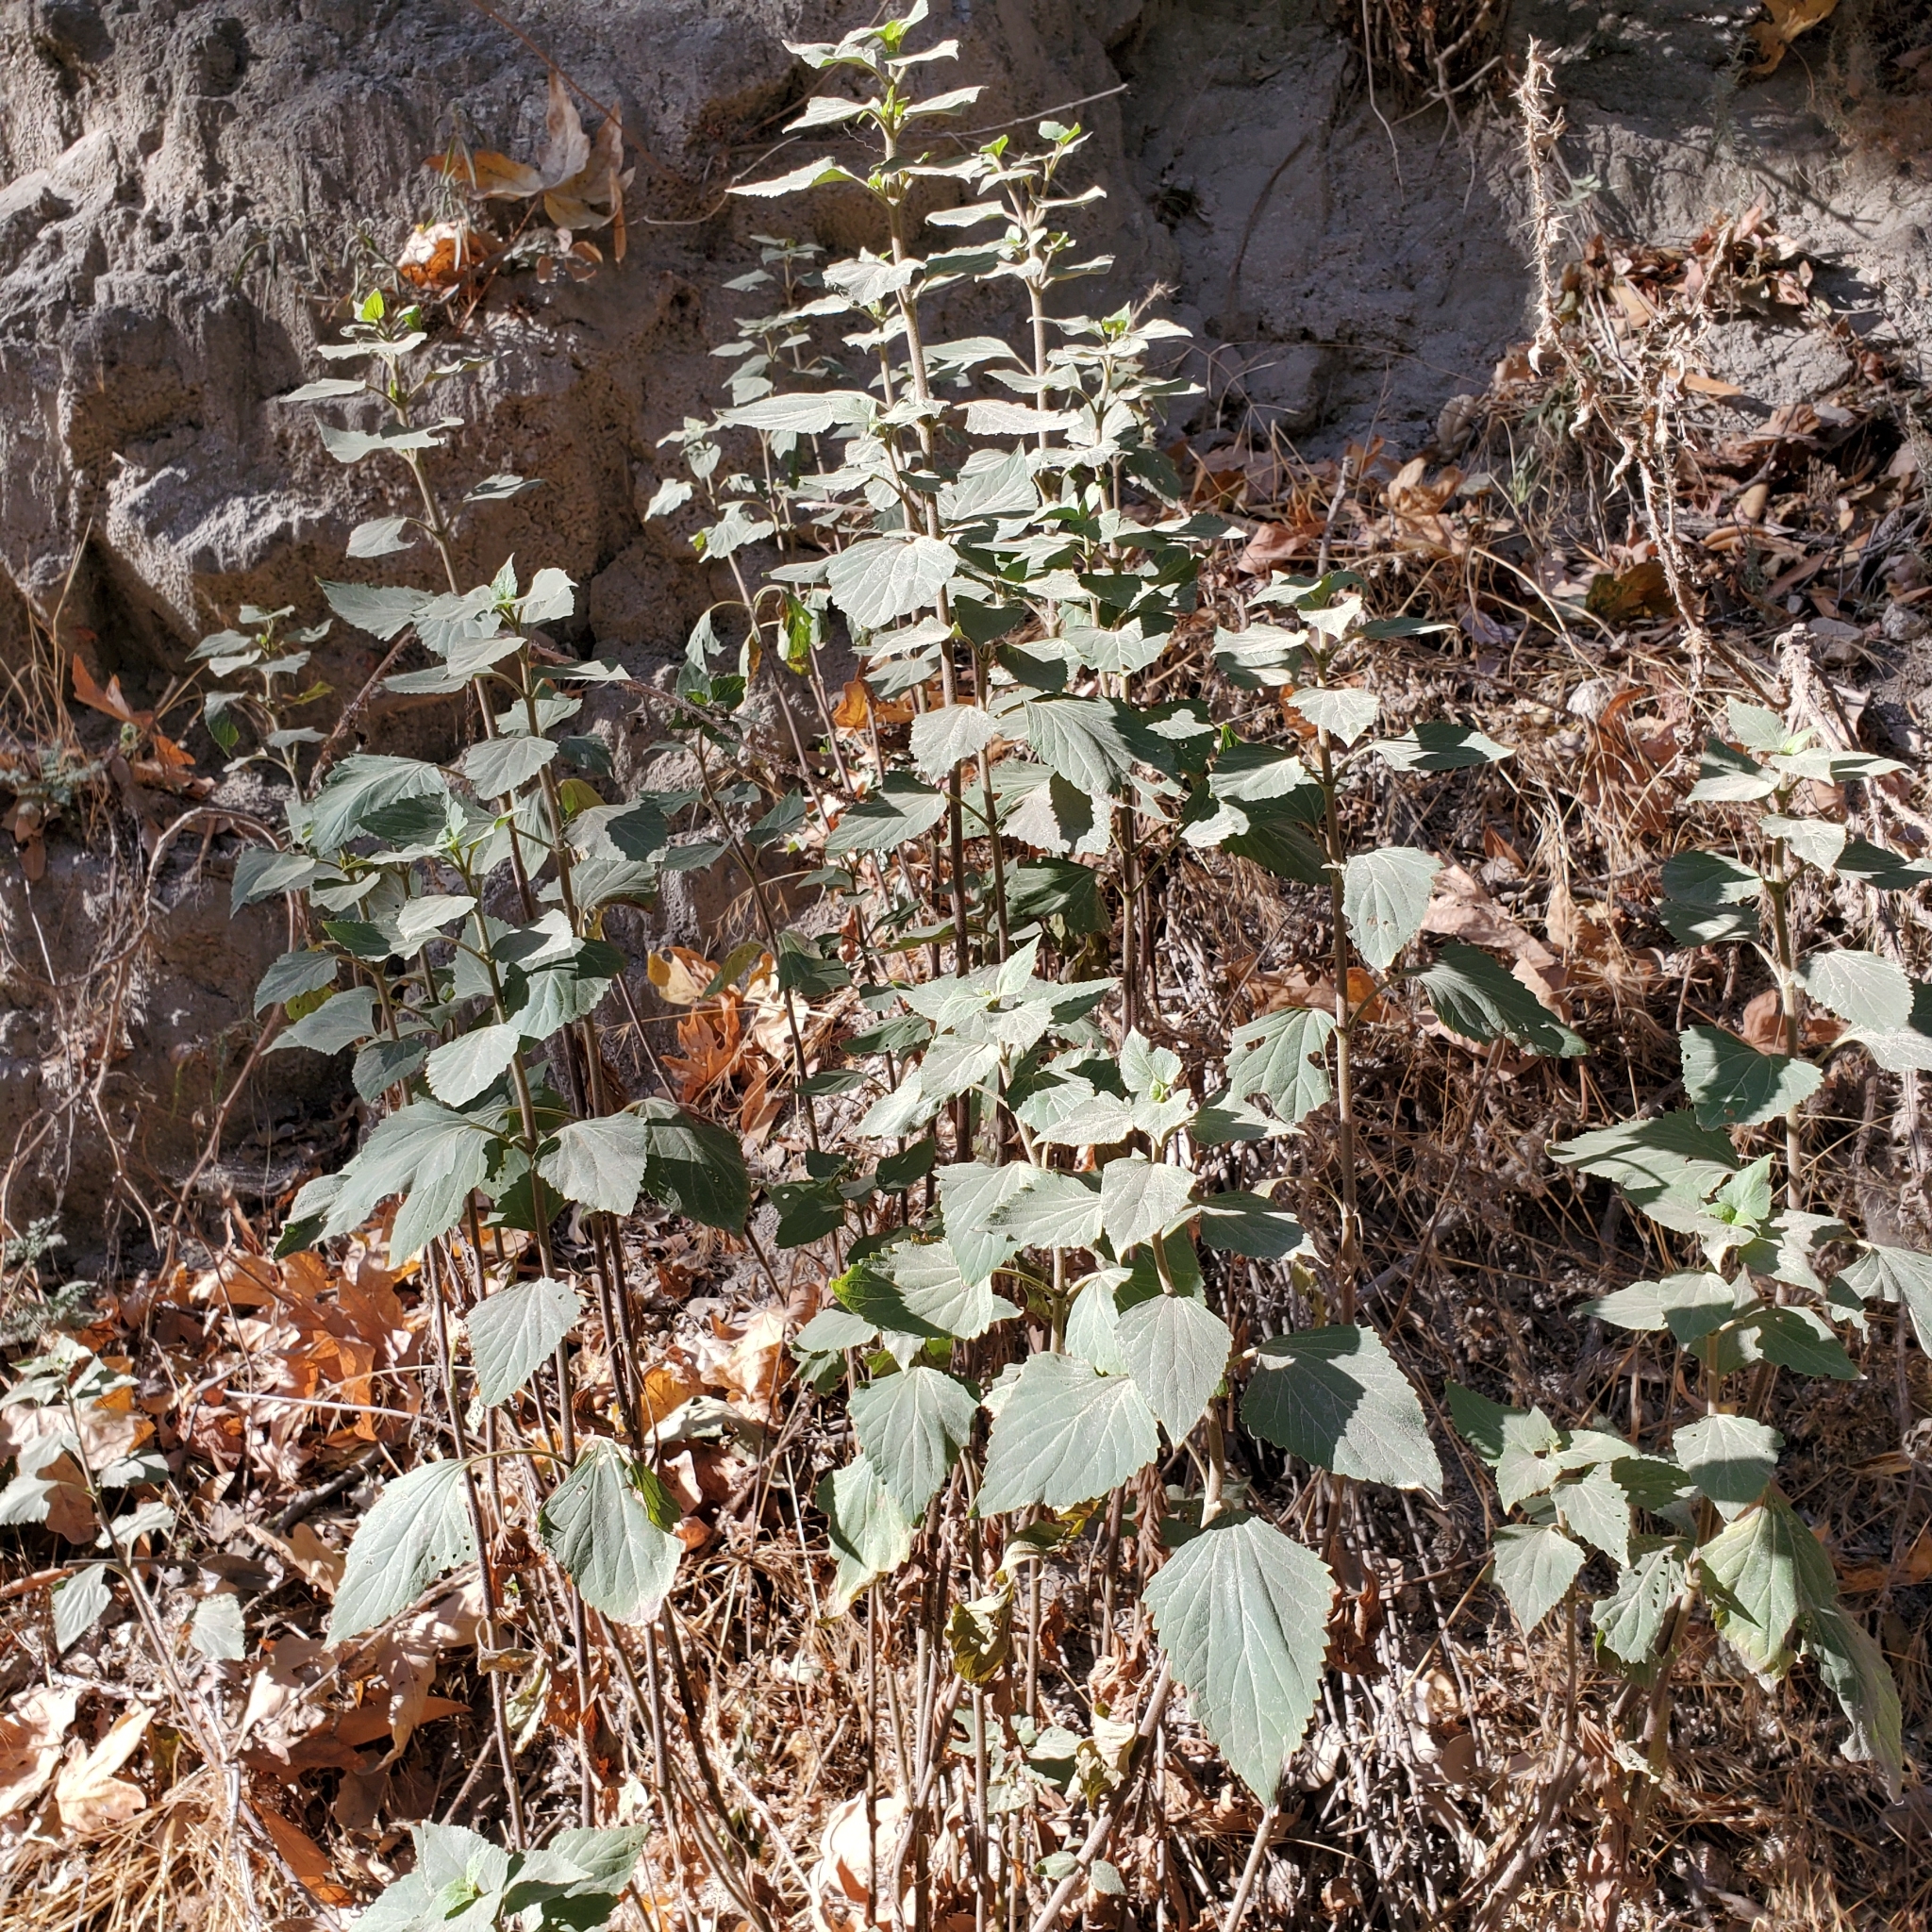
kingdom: Plantae
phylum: Tracheophyta
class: Magnoliopsida
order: Asterales
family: Asteraceae
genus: Ageratina
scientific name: Ageratina adenophora
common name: Sticky snakeroot
